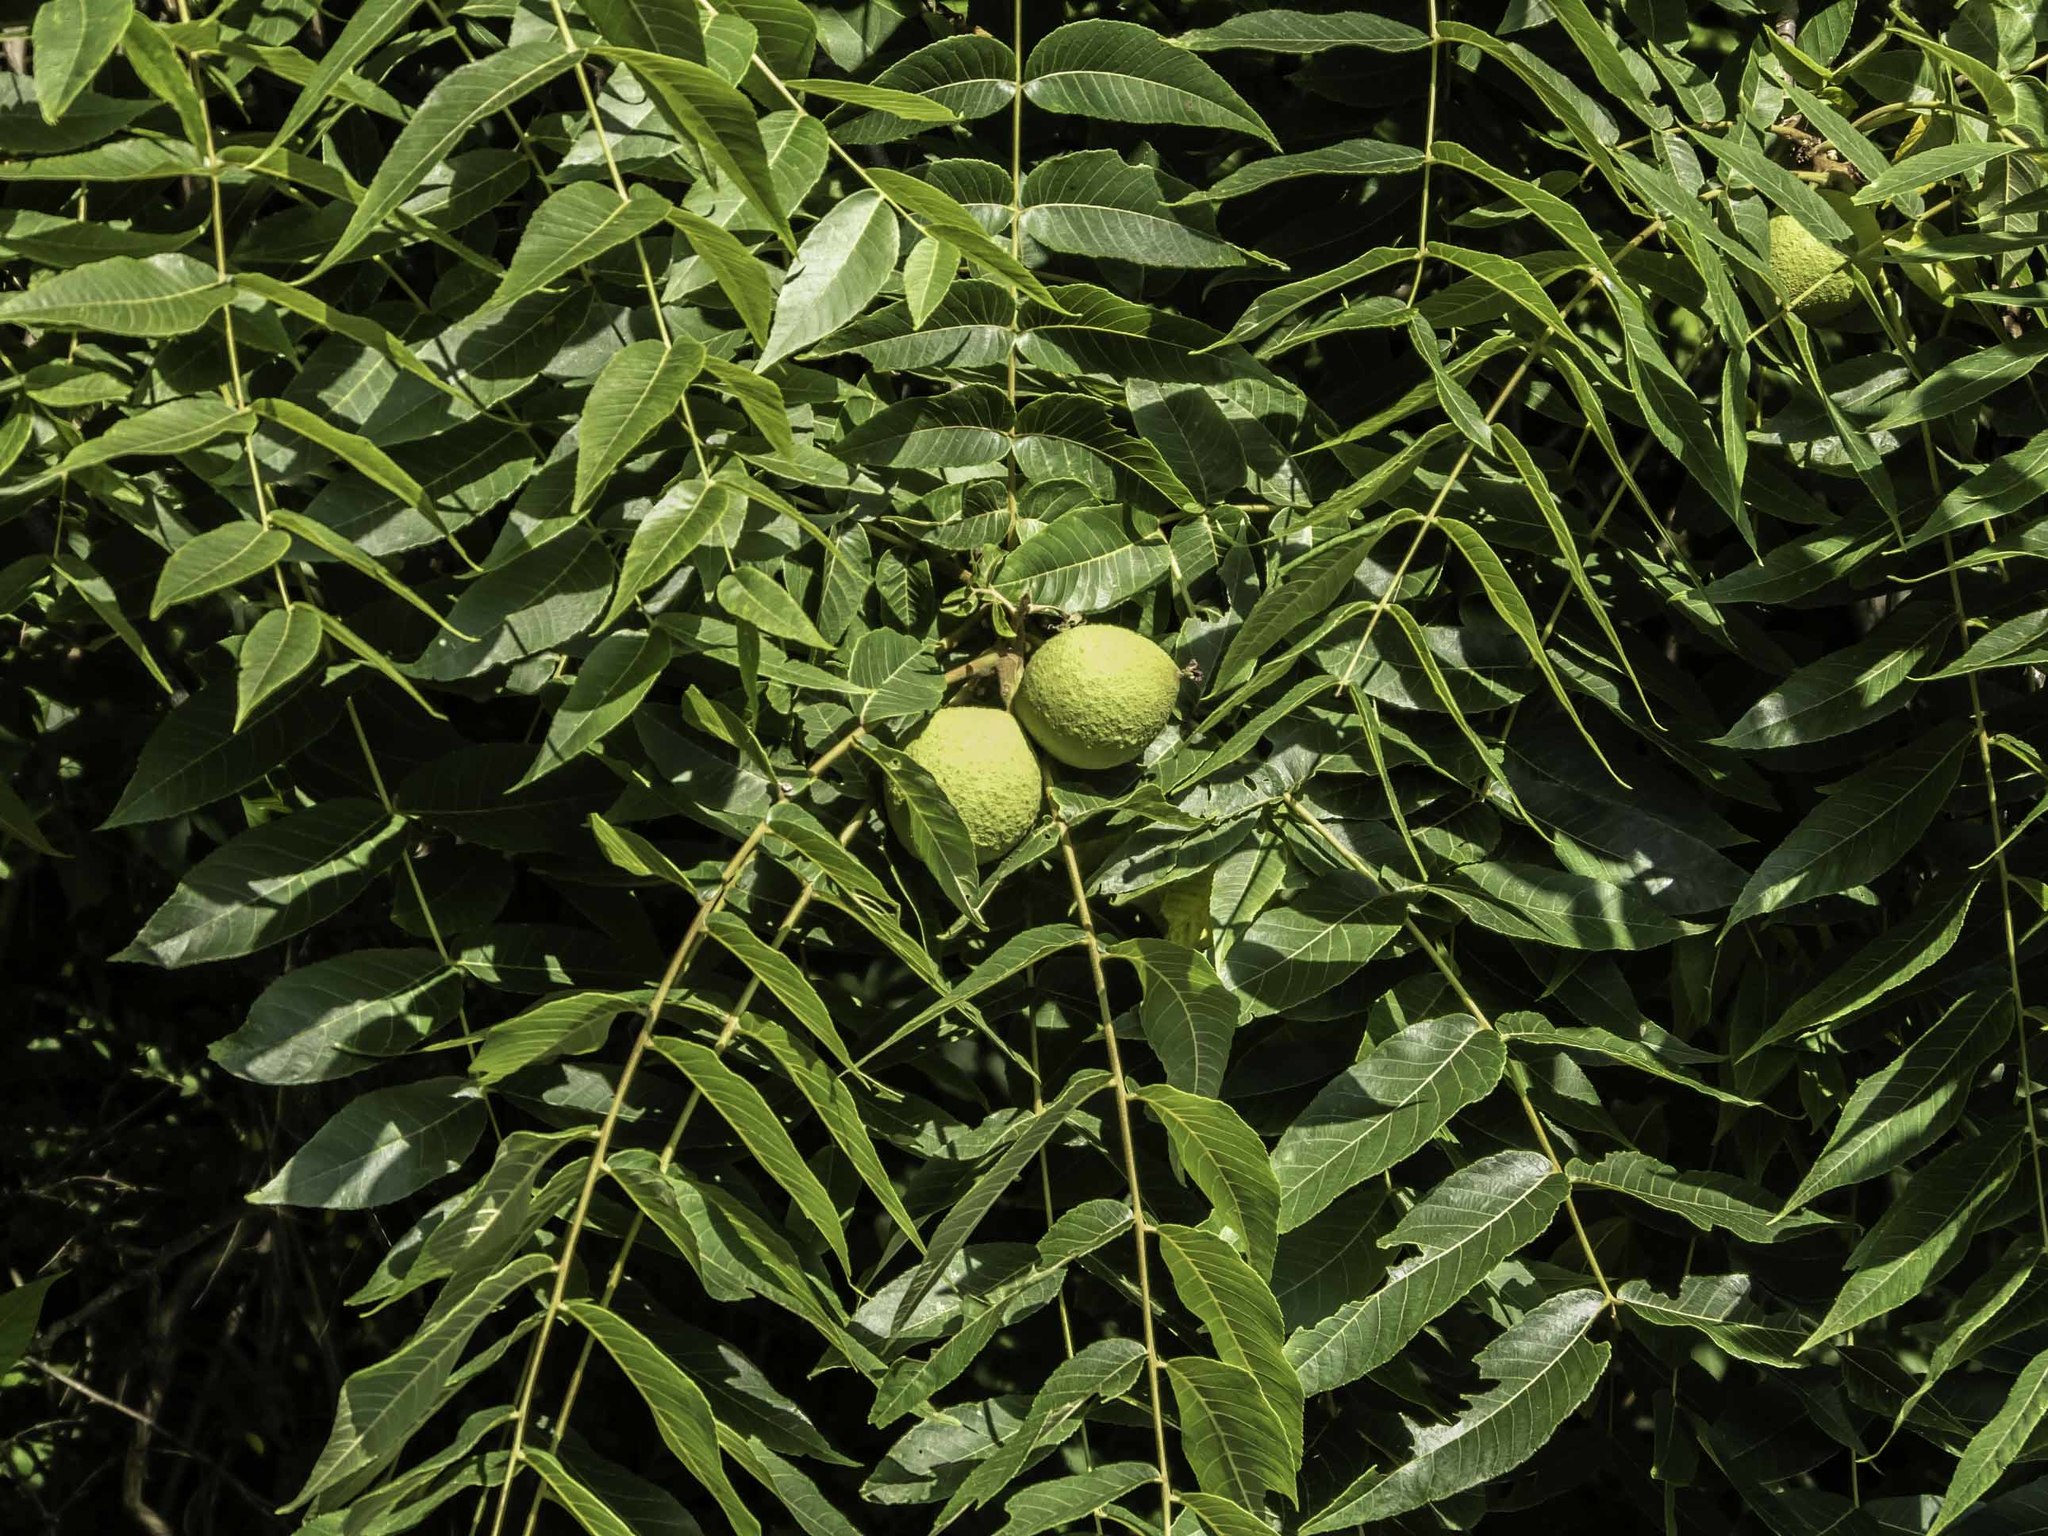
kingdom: Plantae
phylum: Tracheophyta
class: Magnoliopsida
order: Fagales
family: Juglandaceae
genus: Juglans
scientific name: Juglans nigra
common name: Black walnut
